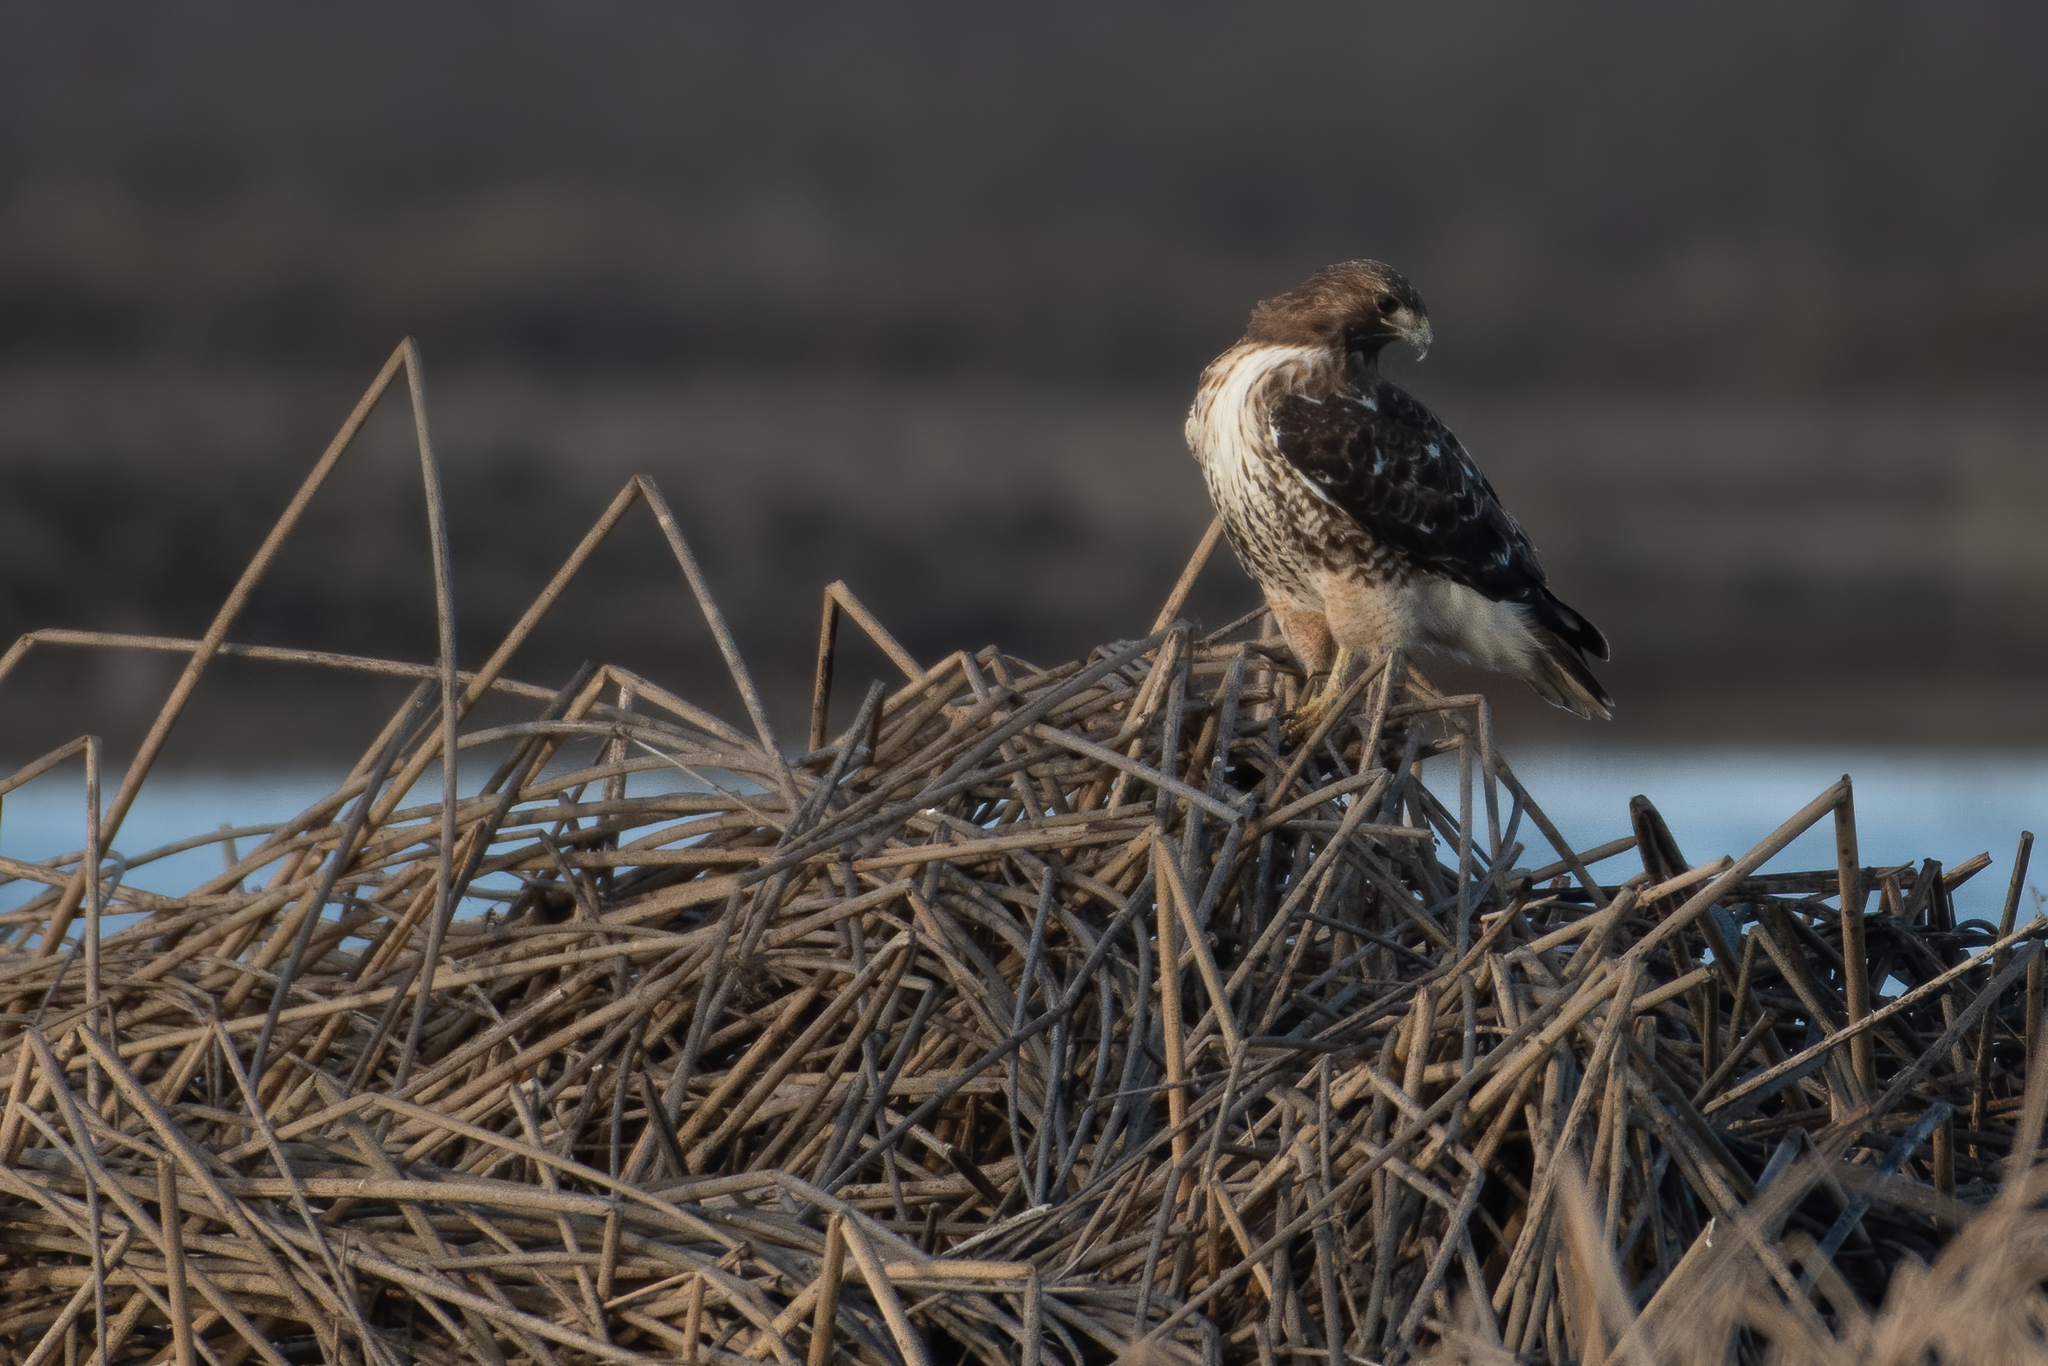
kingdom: Animalia
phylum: Chordata
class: Aves
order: Accipitriformes
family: Accipitridae
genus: Buteo
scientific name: Buteo jamaicensis
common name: Red-tailed hawk
